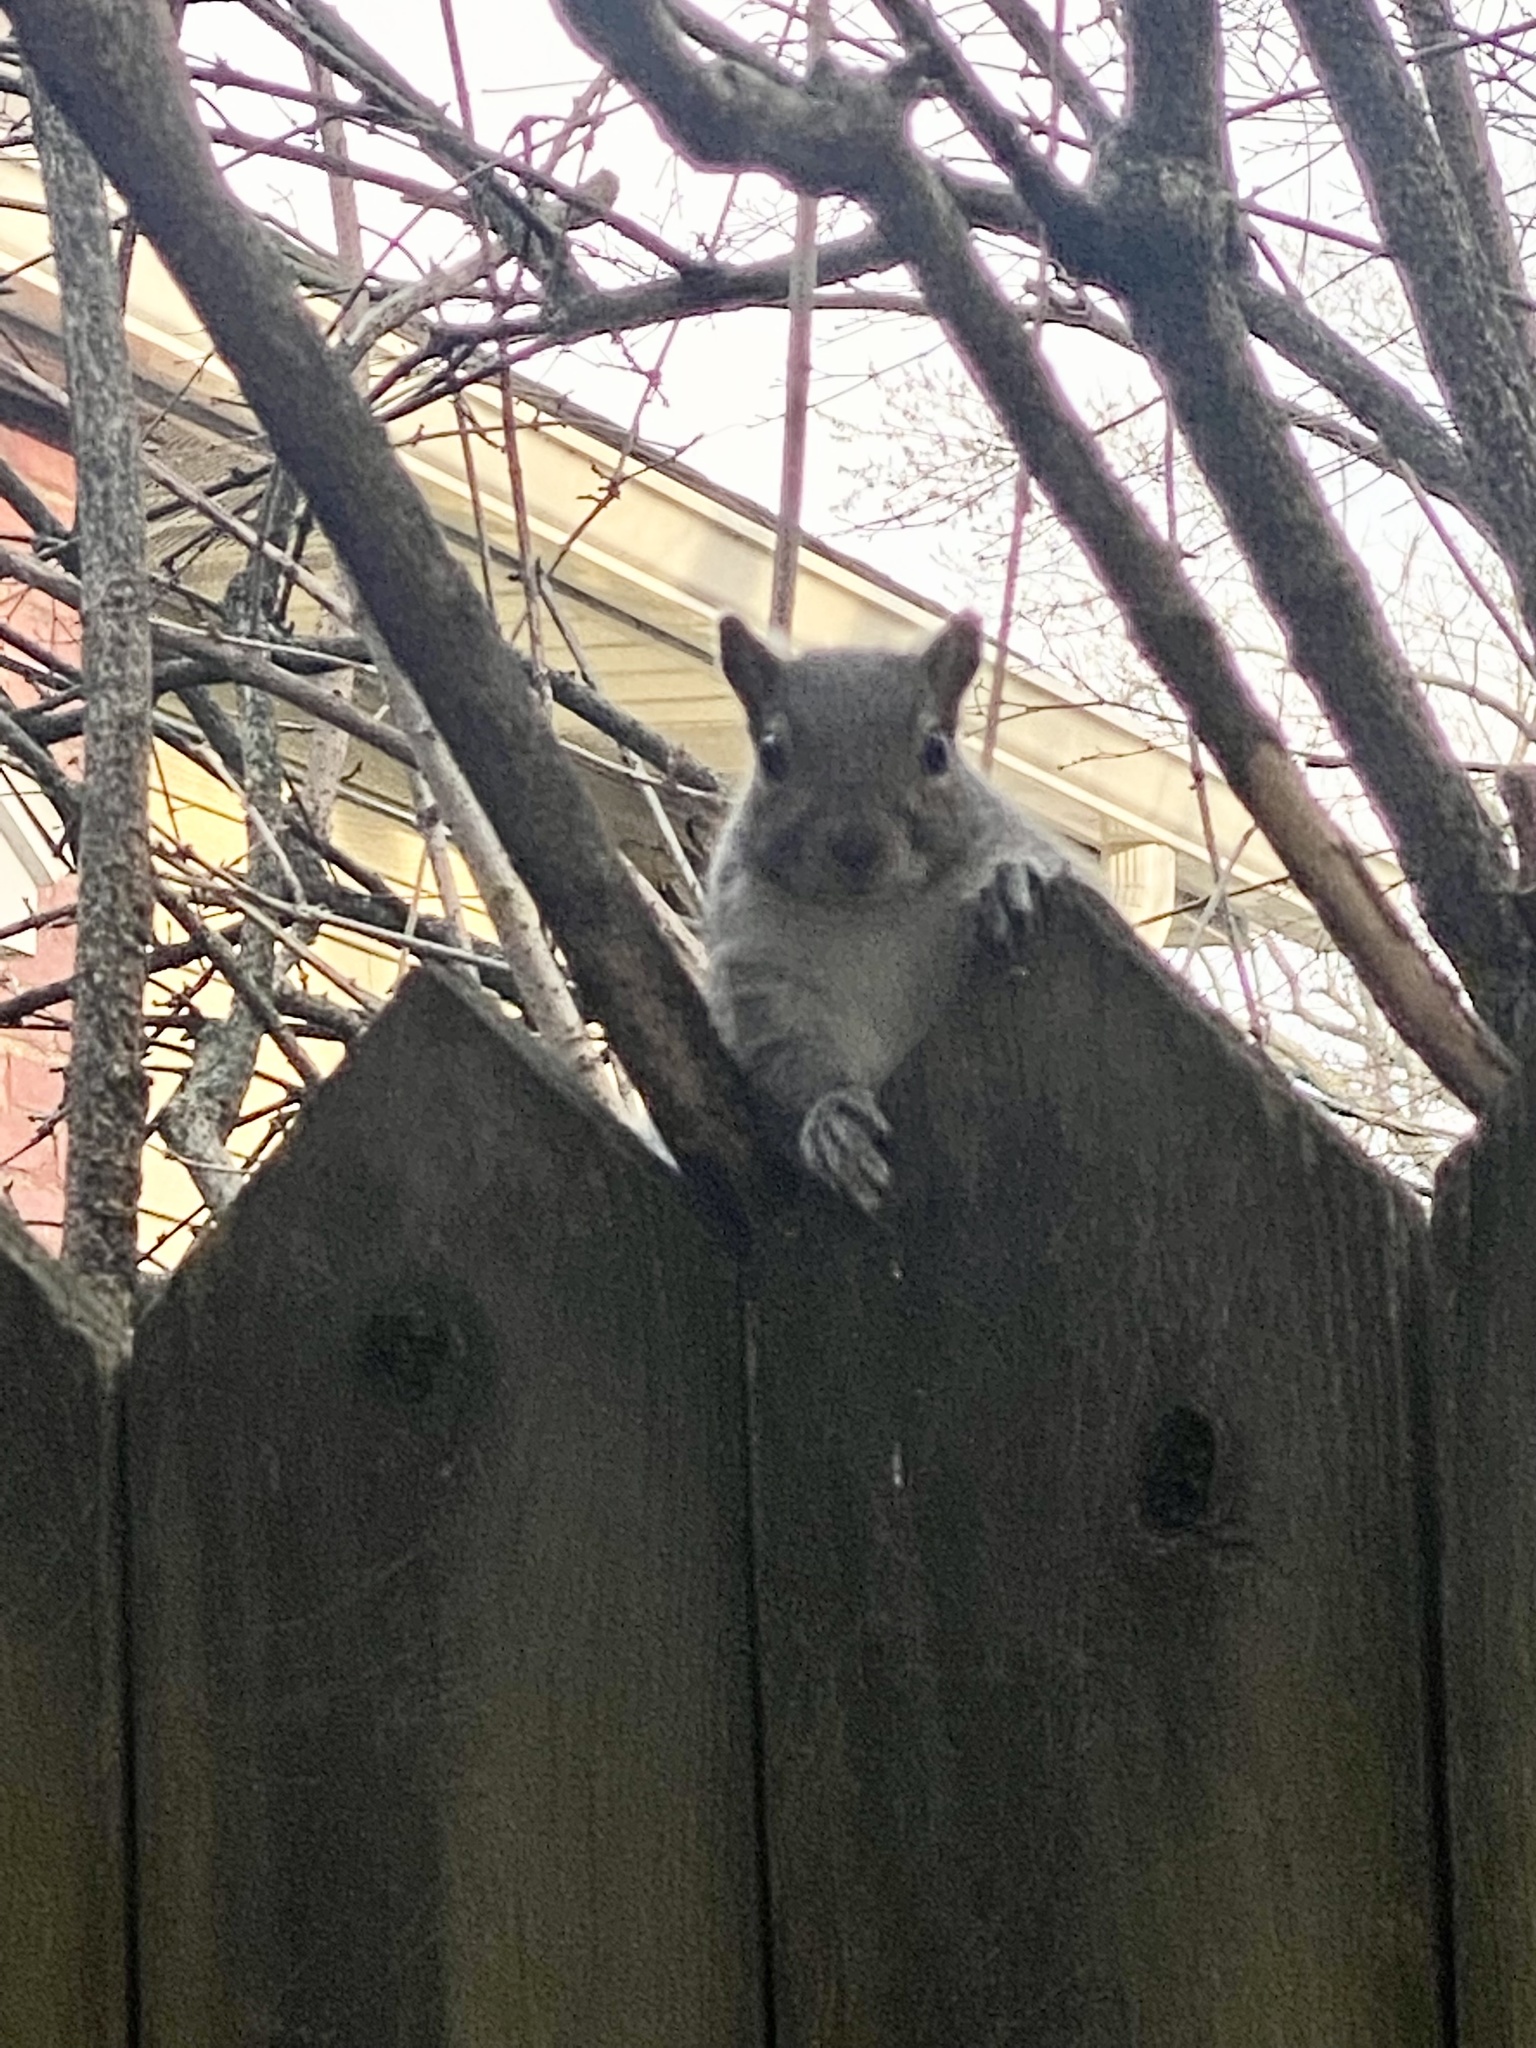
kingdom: Animalia
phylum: Chordata
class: Mammalia
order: Rodentia
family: Sciuridae
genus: Sciurus
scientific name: Sciurus carolinensis
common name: Eastern gray squirrel
